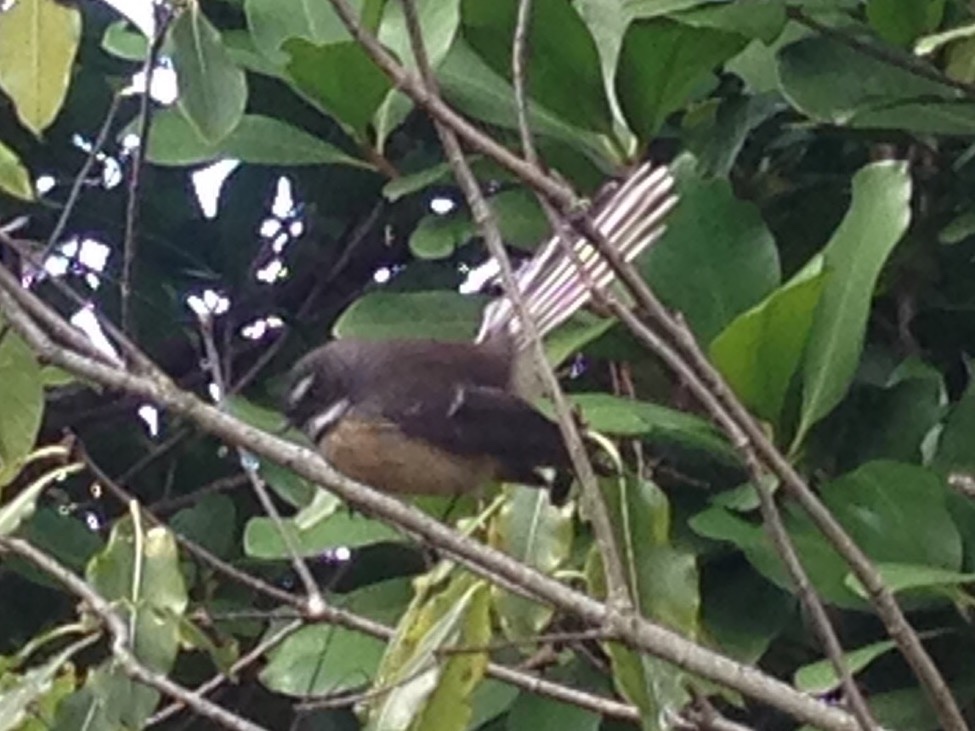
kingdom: Animalia
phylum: Chordata
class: Aves
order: Passeriformes
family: Rhipiduridae
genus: Rhipidura
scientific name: Rhipidura fuliginosa
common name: New zealand fantail
